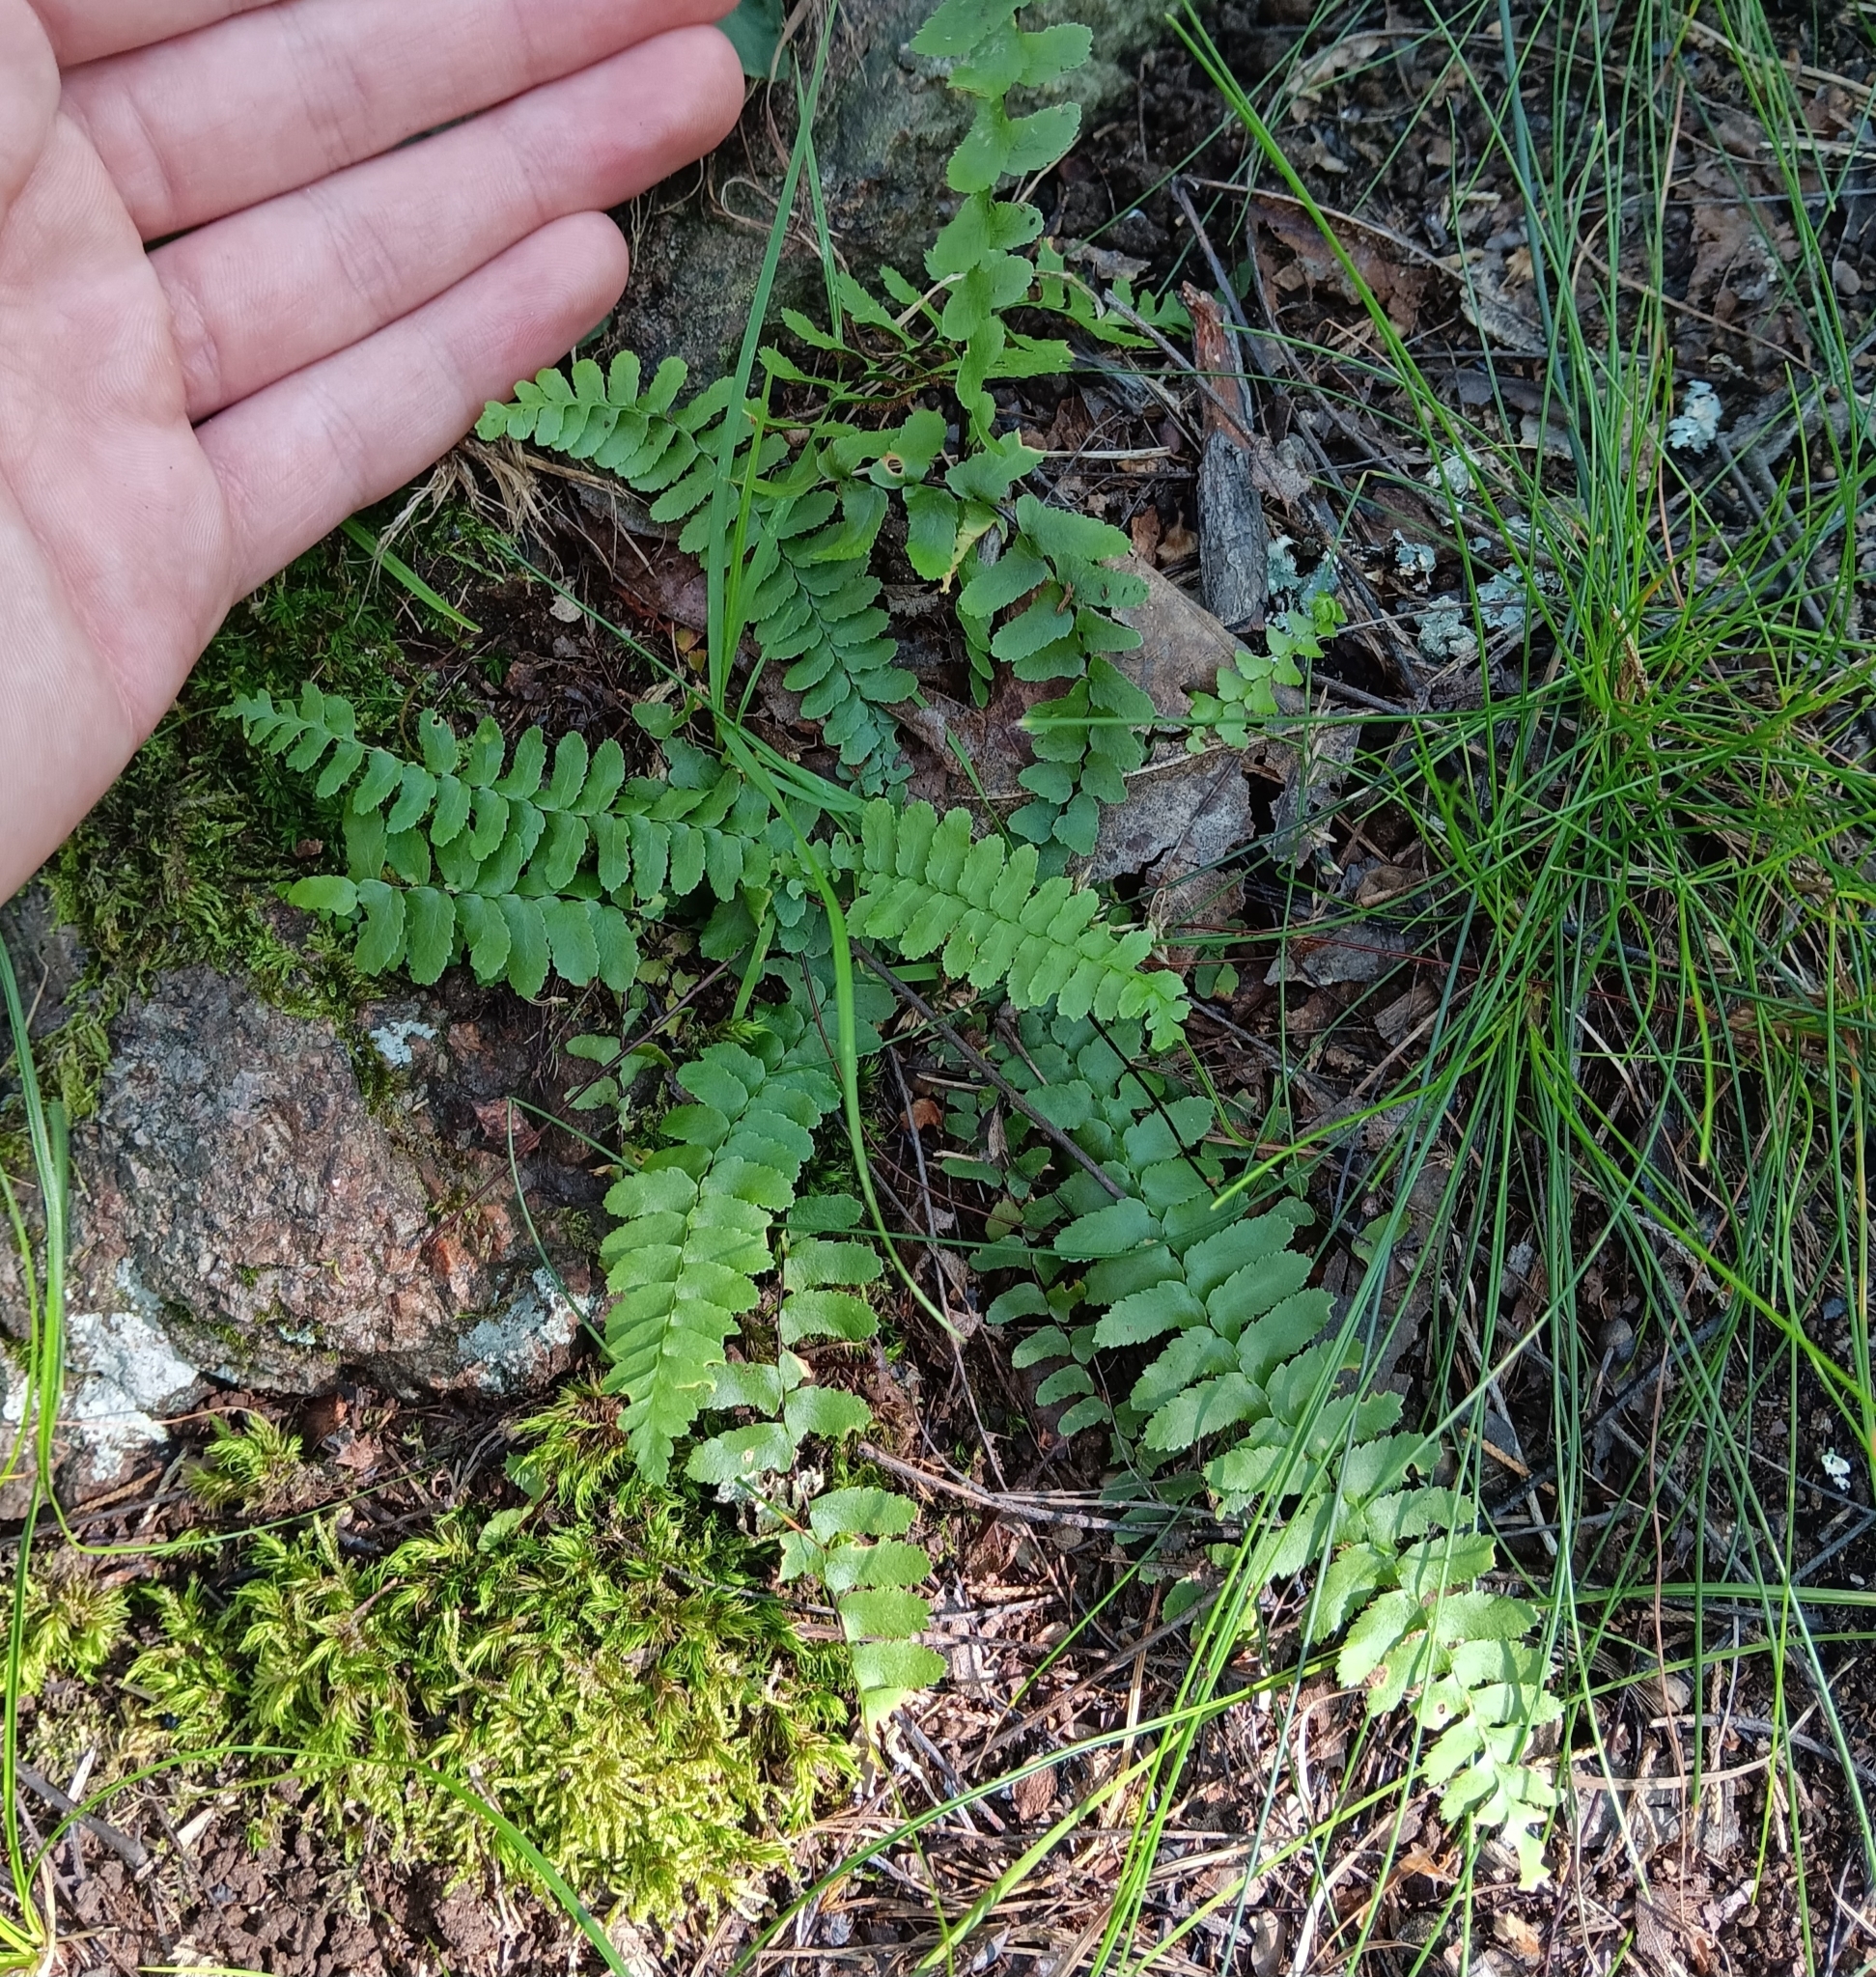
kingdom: Plantae
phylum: Tracheophyta
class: Polypodiopsida
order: Polypodiales
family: Aspleniaceae
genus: Asplenium
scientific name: Asplenium platyneuron
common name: Ebony spleenwort
